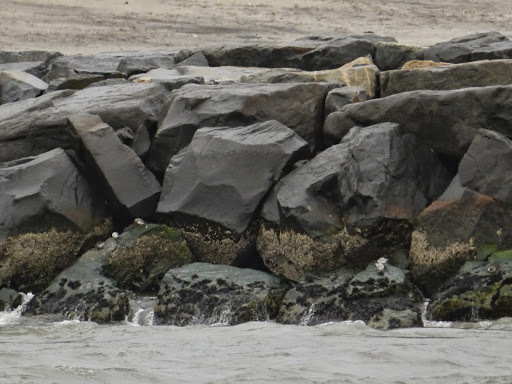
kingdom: Animalia
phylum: Chordata
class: Aves
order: Charadriiformes
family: Scolopacidae
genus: Calidris
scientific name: Calidris alba
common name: Sanderling
